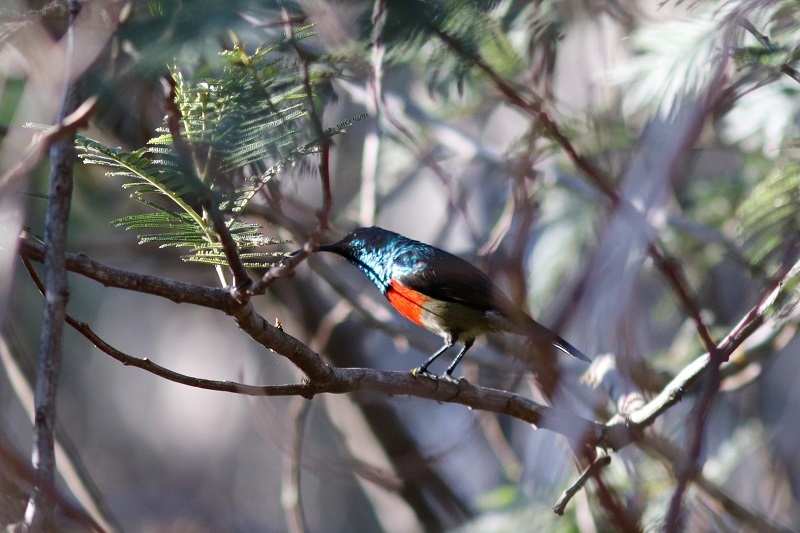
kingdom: Animalia
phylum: Chordata
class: Aves
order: Passeriformes
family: Nectariniidae
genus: Cinnyris
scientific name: Cinnyris afer
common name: Greater double-collared sunbird
